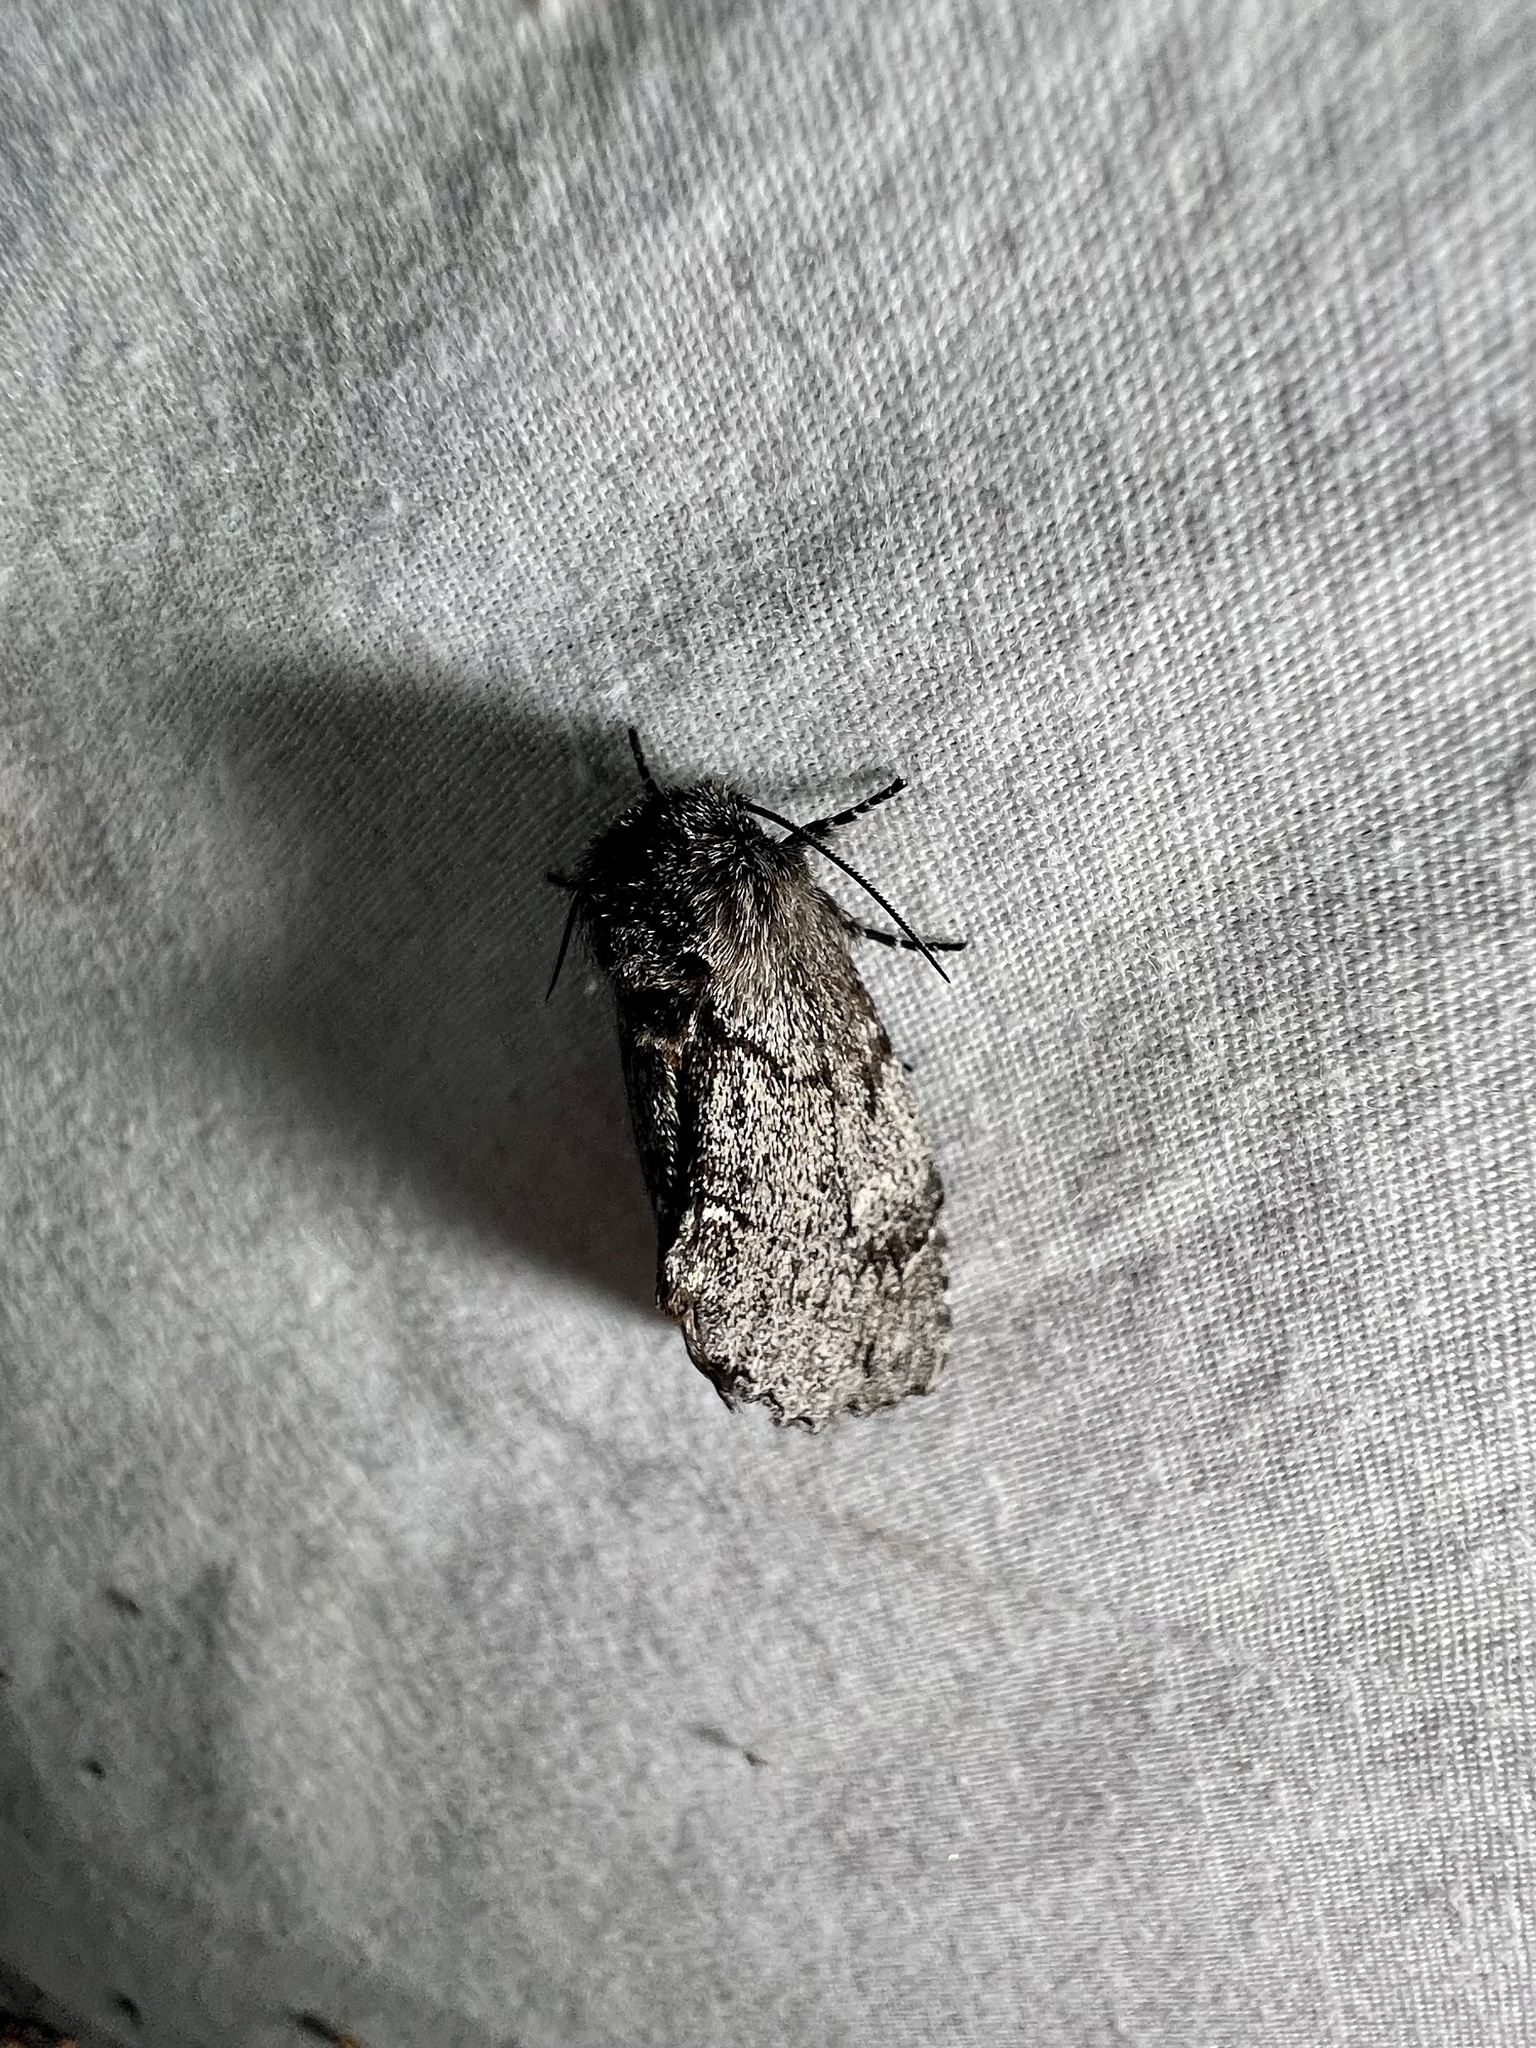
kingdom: Animalia
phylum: Arthropoda
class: Insecta
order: Lepidoptera
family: Notodontidae
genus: Cargida
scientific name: Cargida pyrrha
